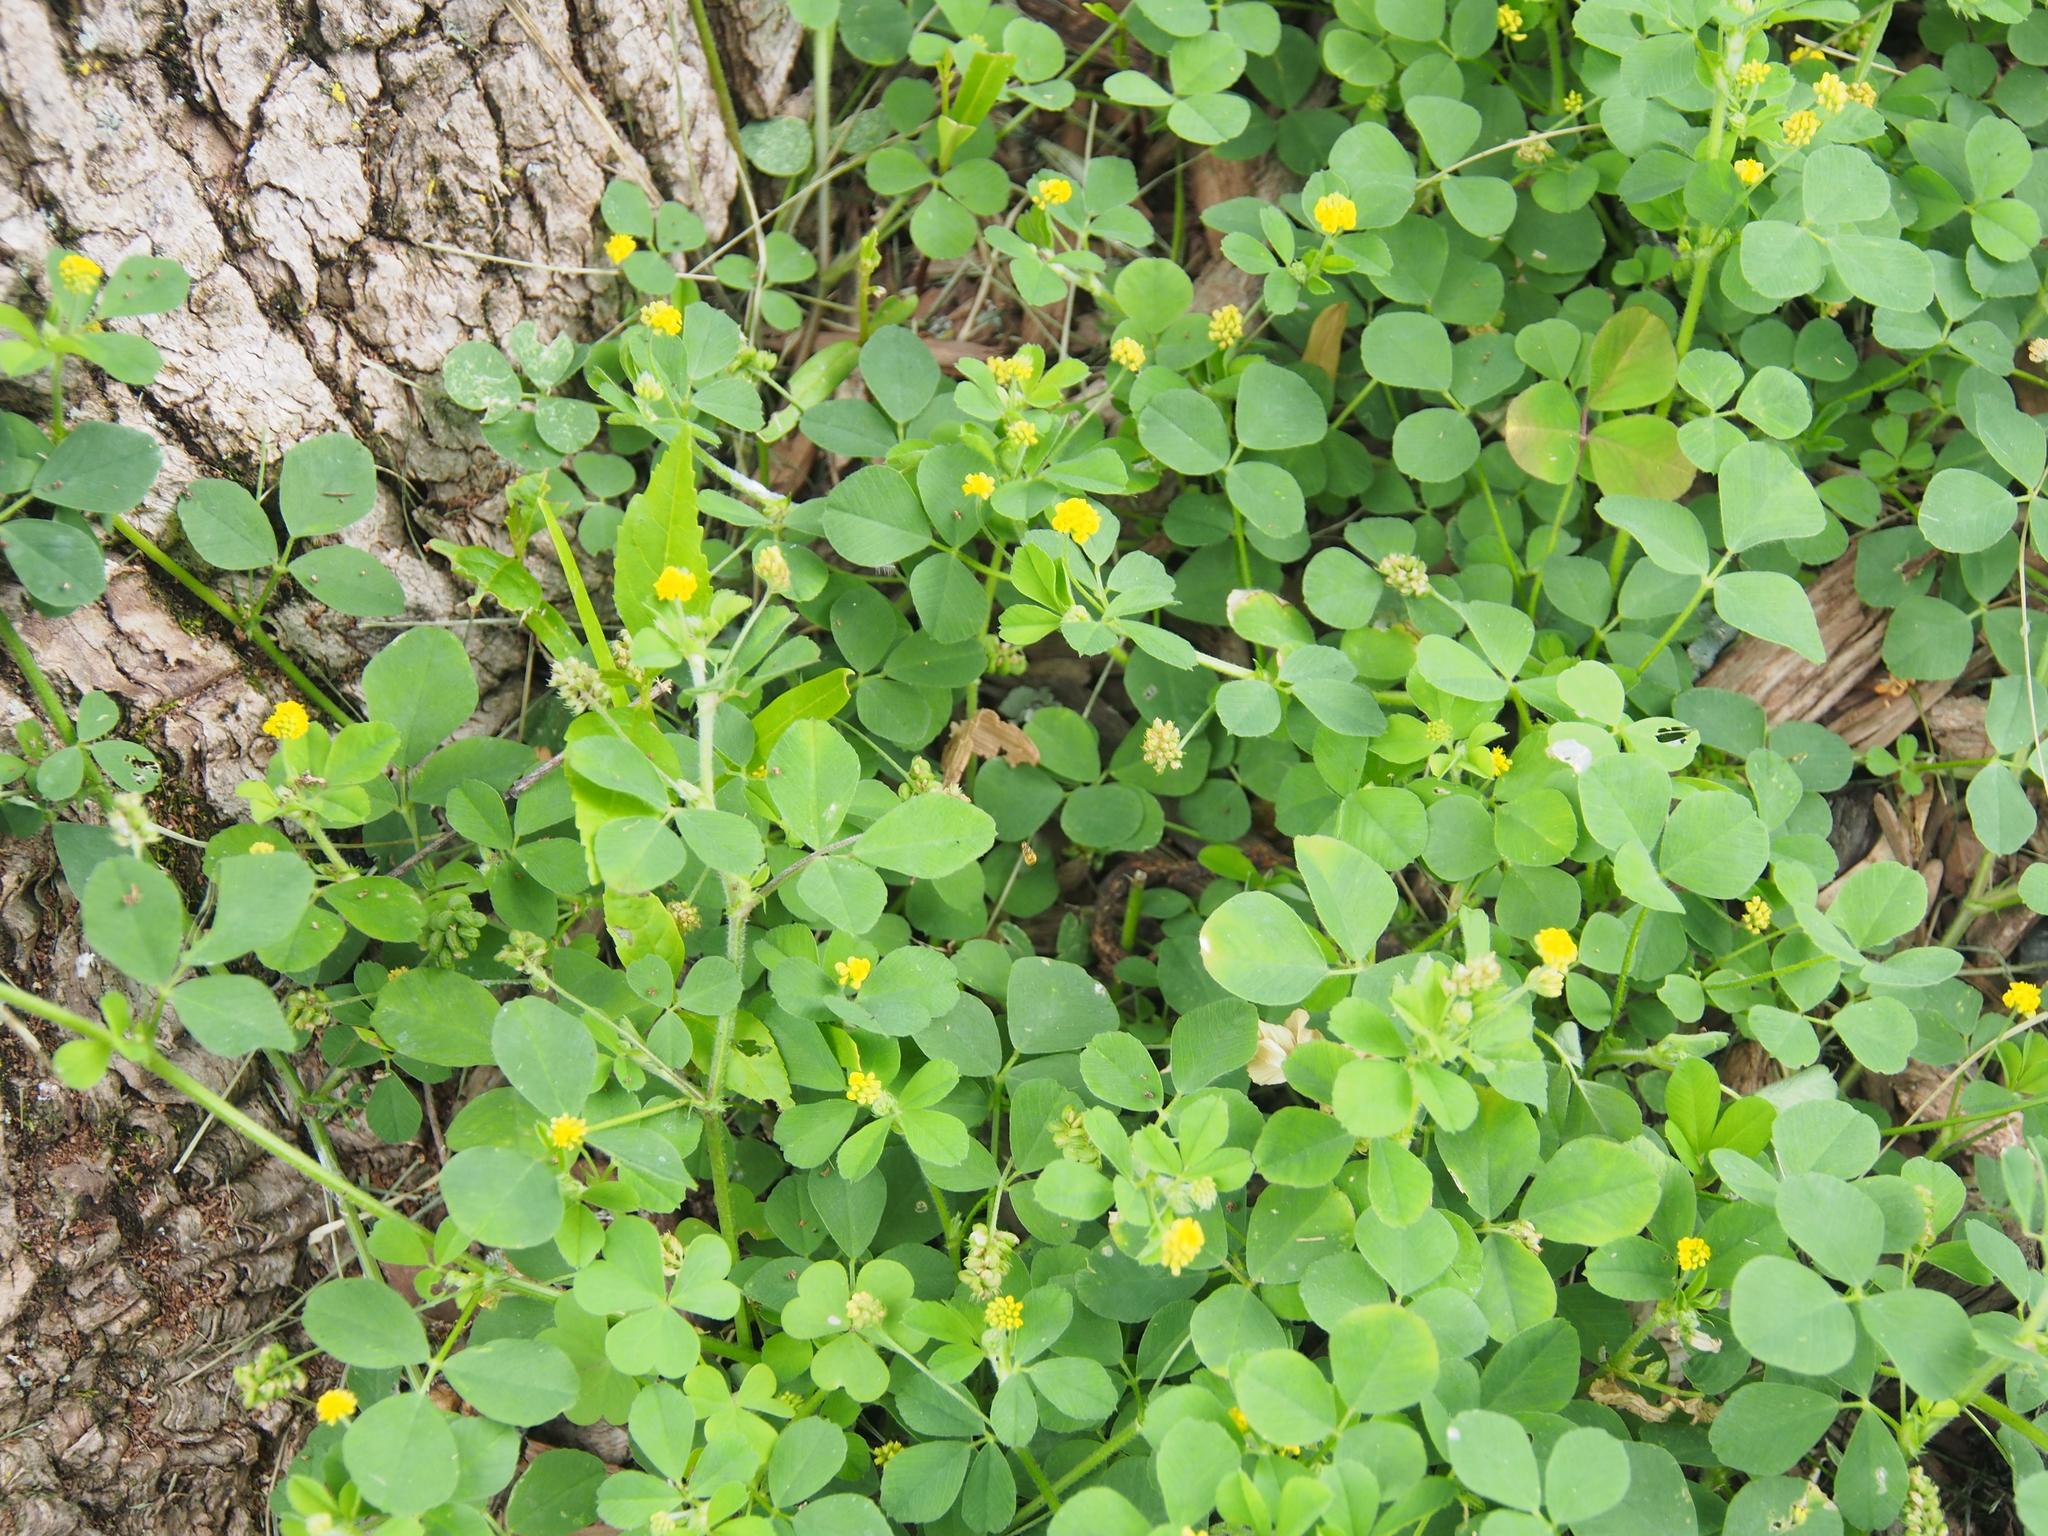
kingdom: Plantae
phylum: Tracheophyta
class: Magnoliopsida
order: Fabales
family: Fabaceae
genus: Medicago
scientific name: Medicago lupulina
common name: Black medick
